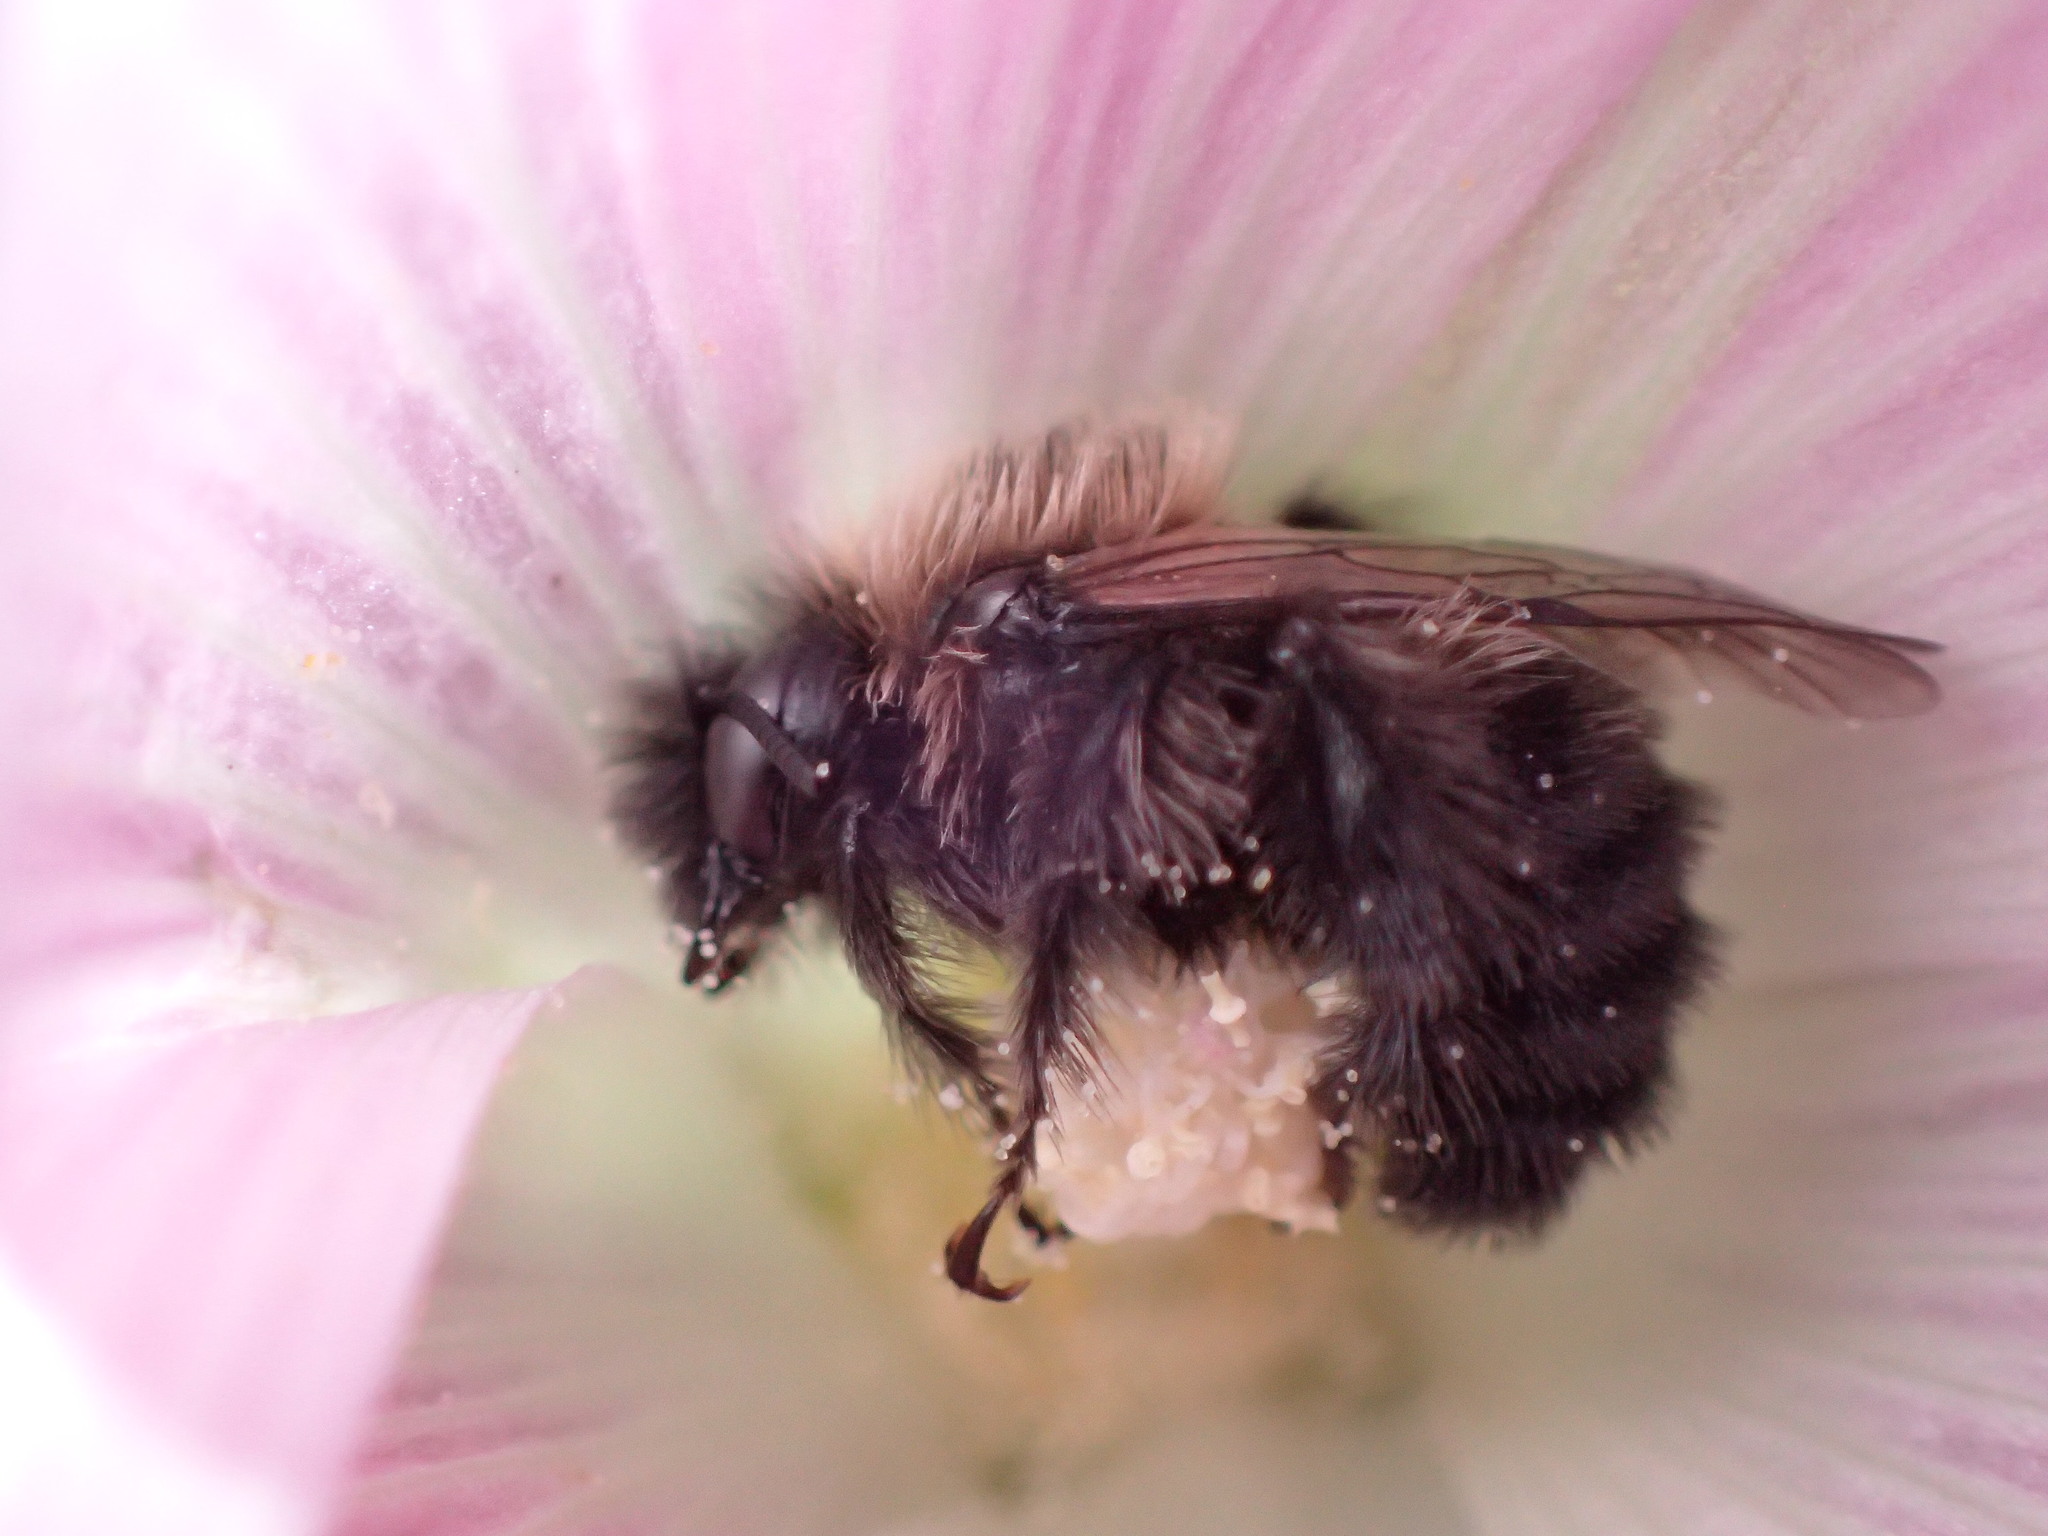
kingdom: Animalia
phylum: Arthropoda
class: Insecta
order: Hymenoptera
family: Apidae
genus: Diadasia
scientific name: Diadasia nigrifrons
